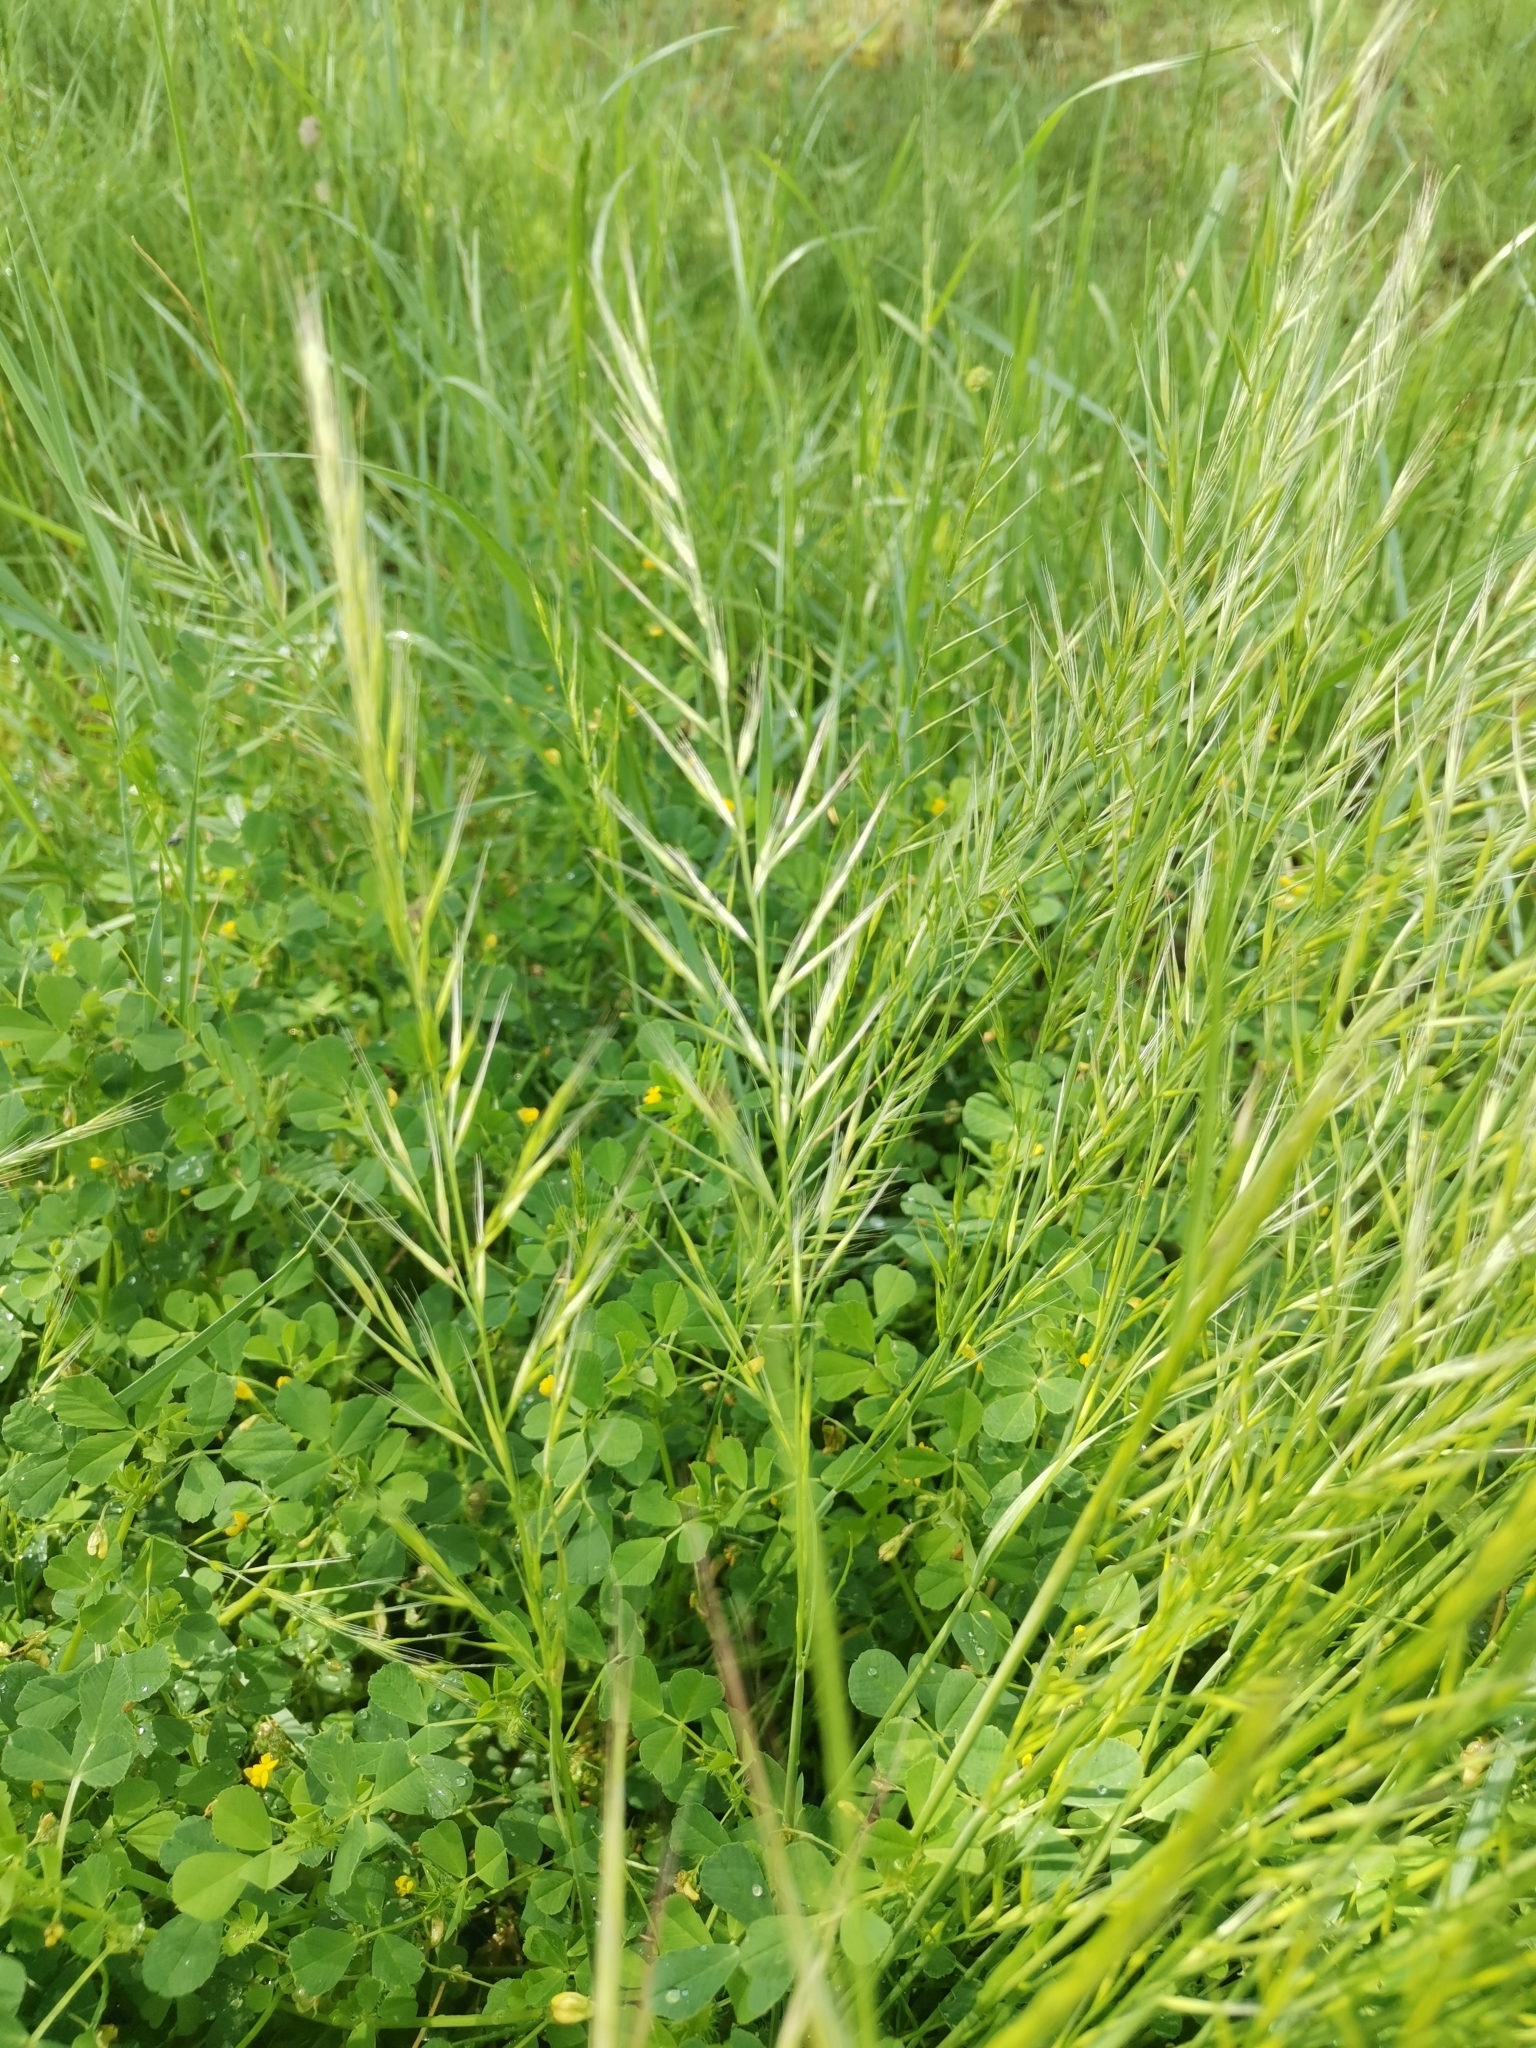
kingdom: Plantae
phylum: Tracheophyta
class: Liliopsida
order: Poales
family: Poaceae
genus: Festuca
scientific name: Festuca myuros
